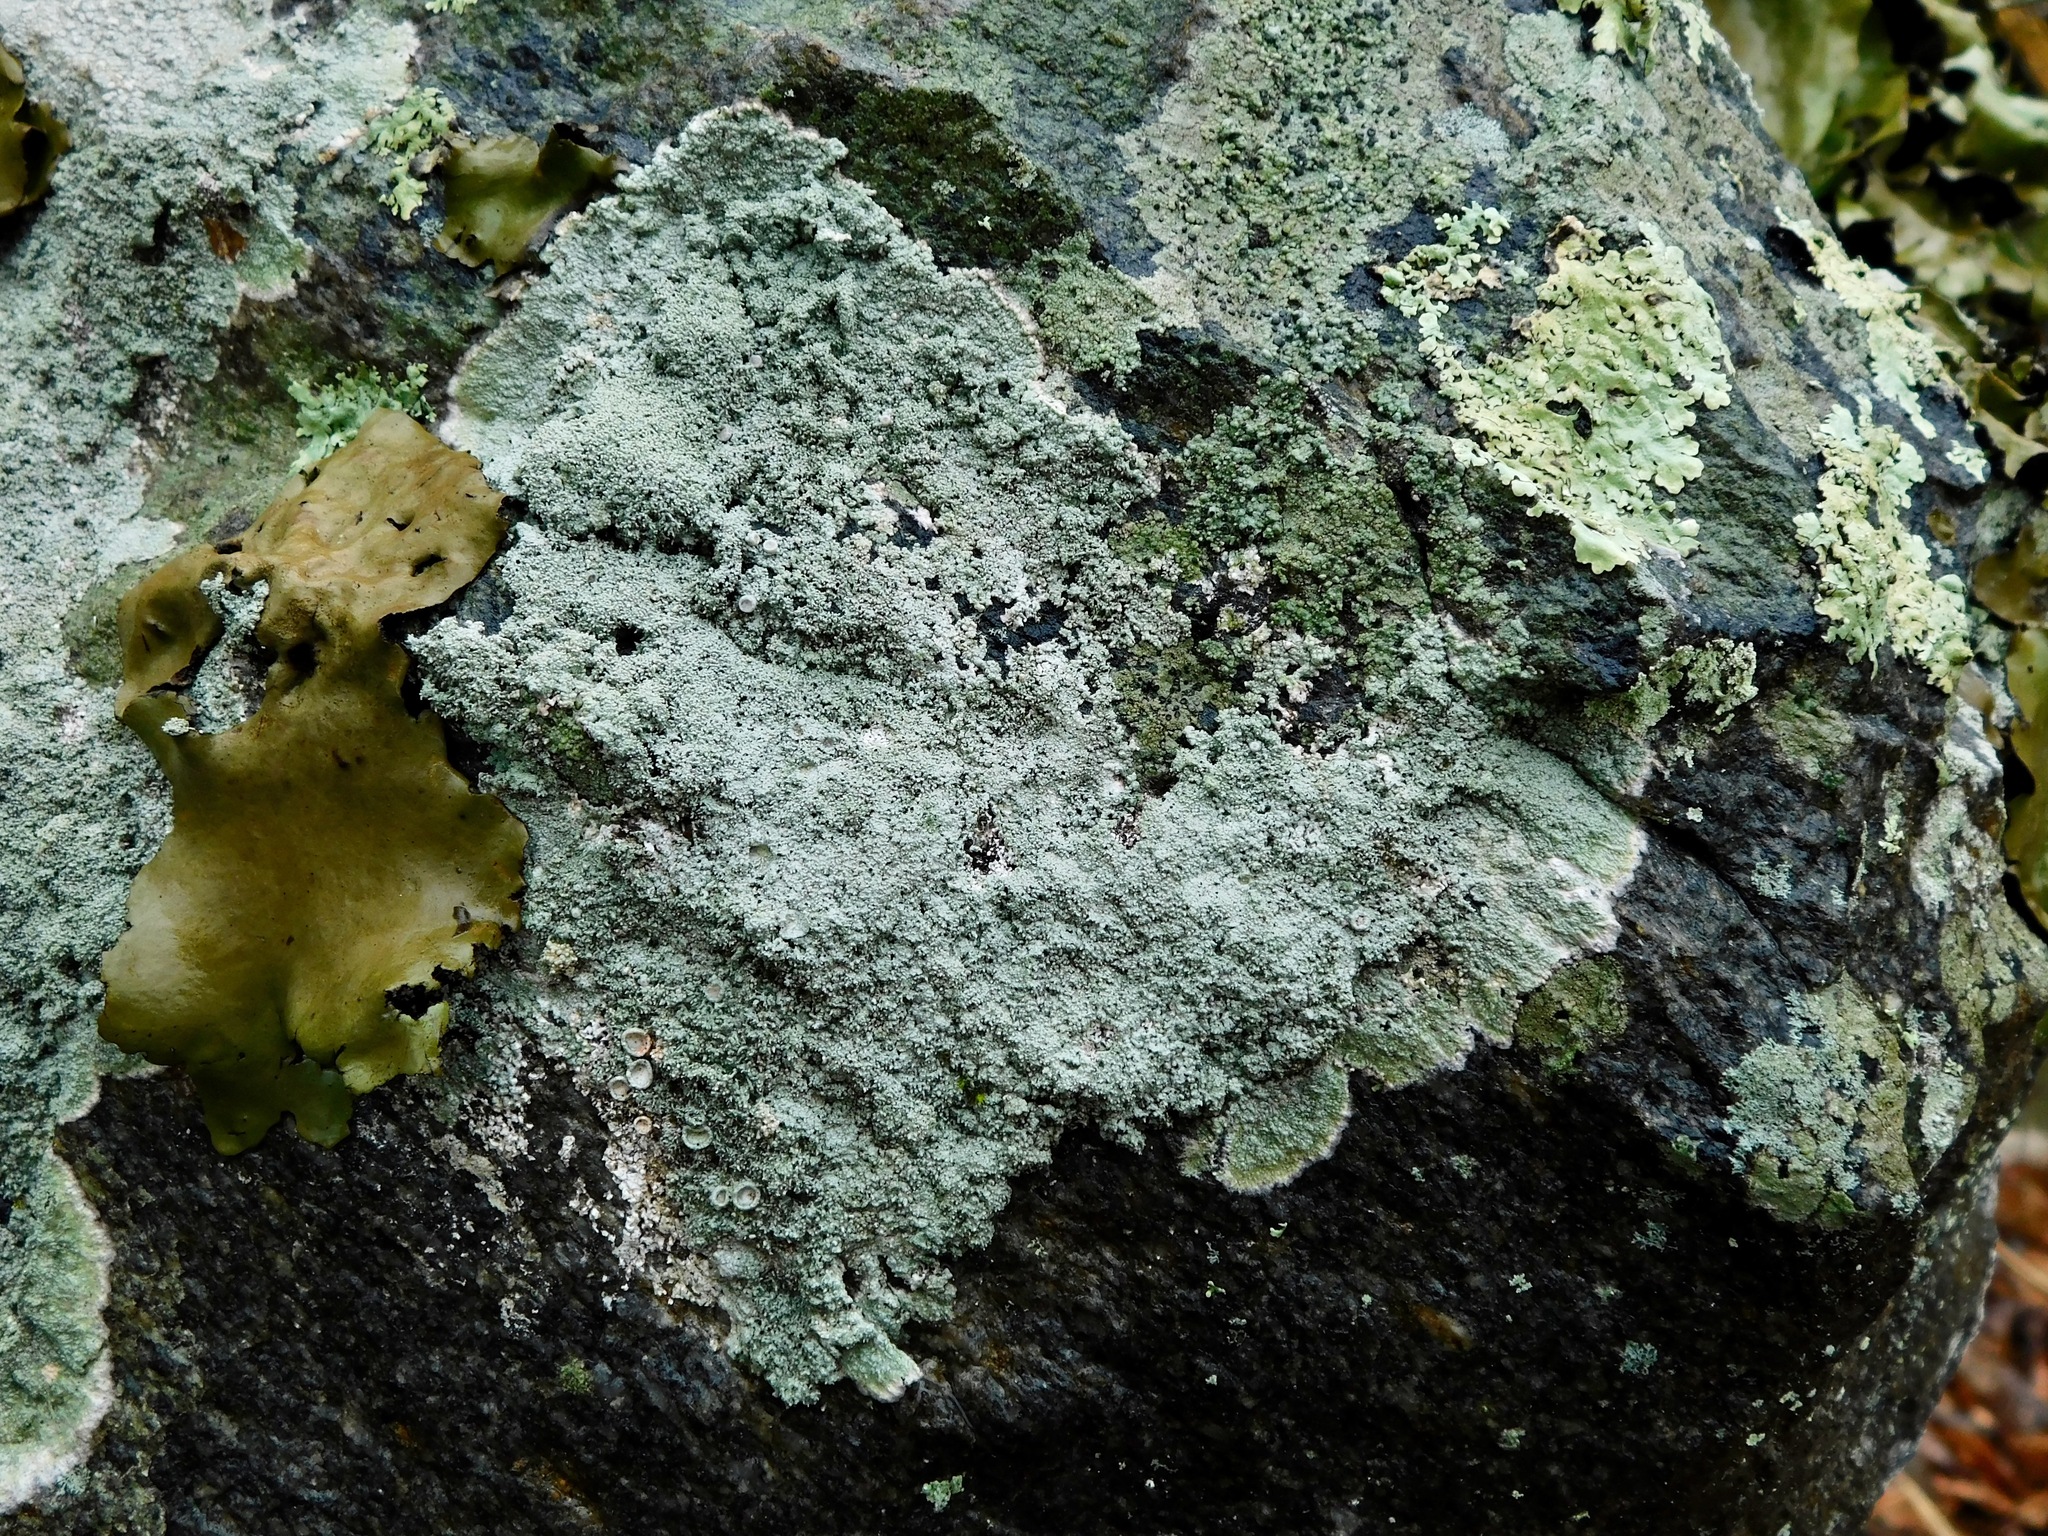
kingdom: Fungi
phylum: Ascomycota
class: Lecanoromycetes
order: Pertusariales
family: Ochrolechiaceae
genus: Ochrolechia
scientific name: Ochrolechia yasudae
